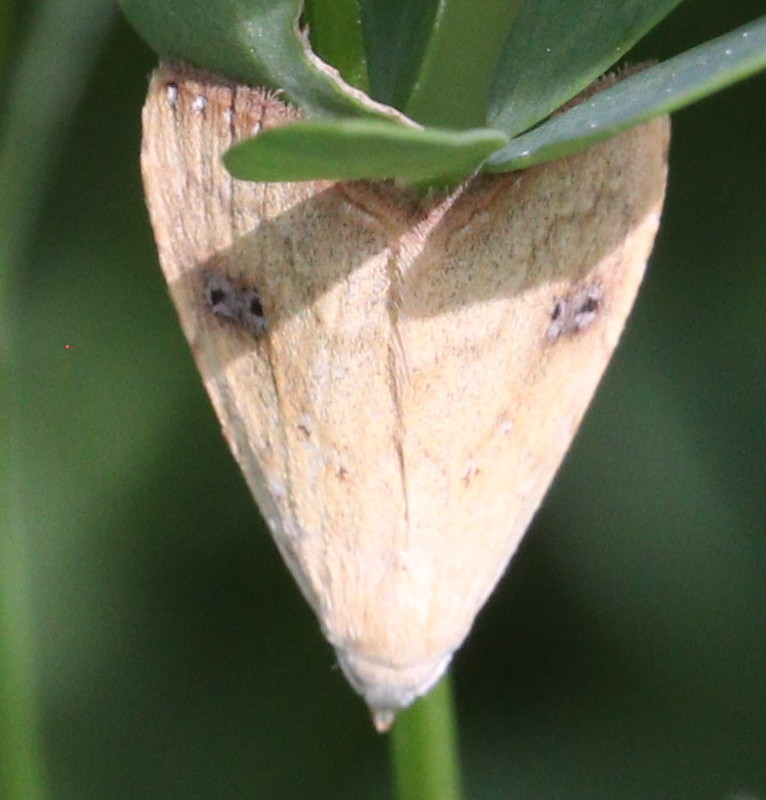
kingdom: Animalia
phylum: Arthropoda
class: Insecta
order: Lepidoptera
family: Erebidae
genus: Rivula
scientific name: Rivula sericealis
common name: Straw dot
